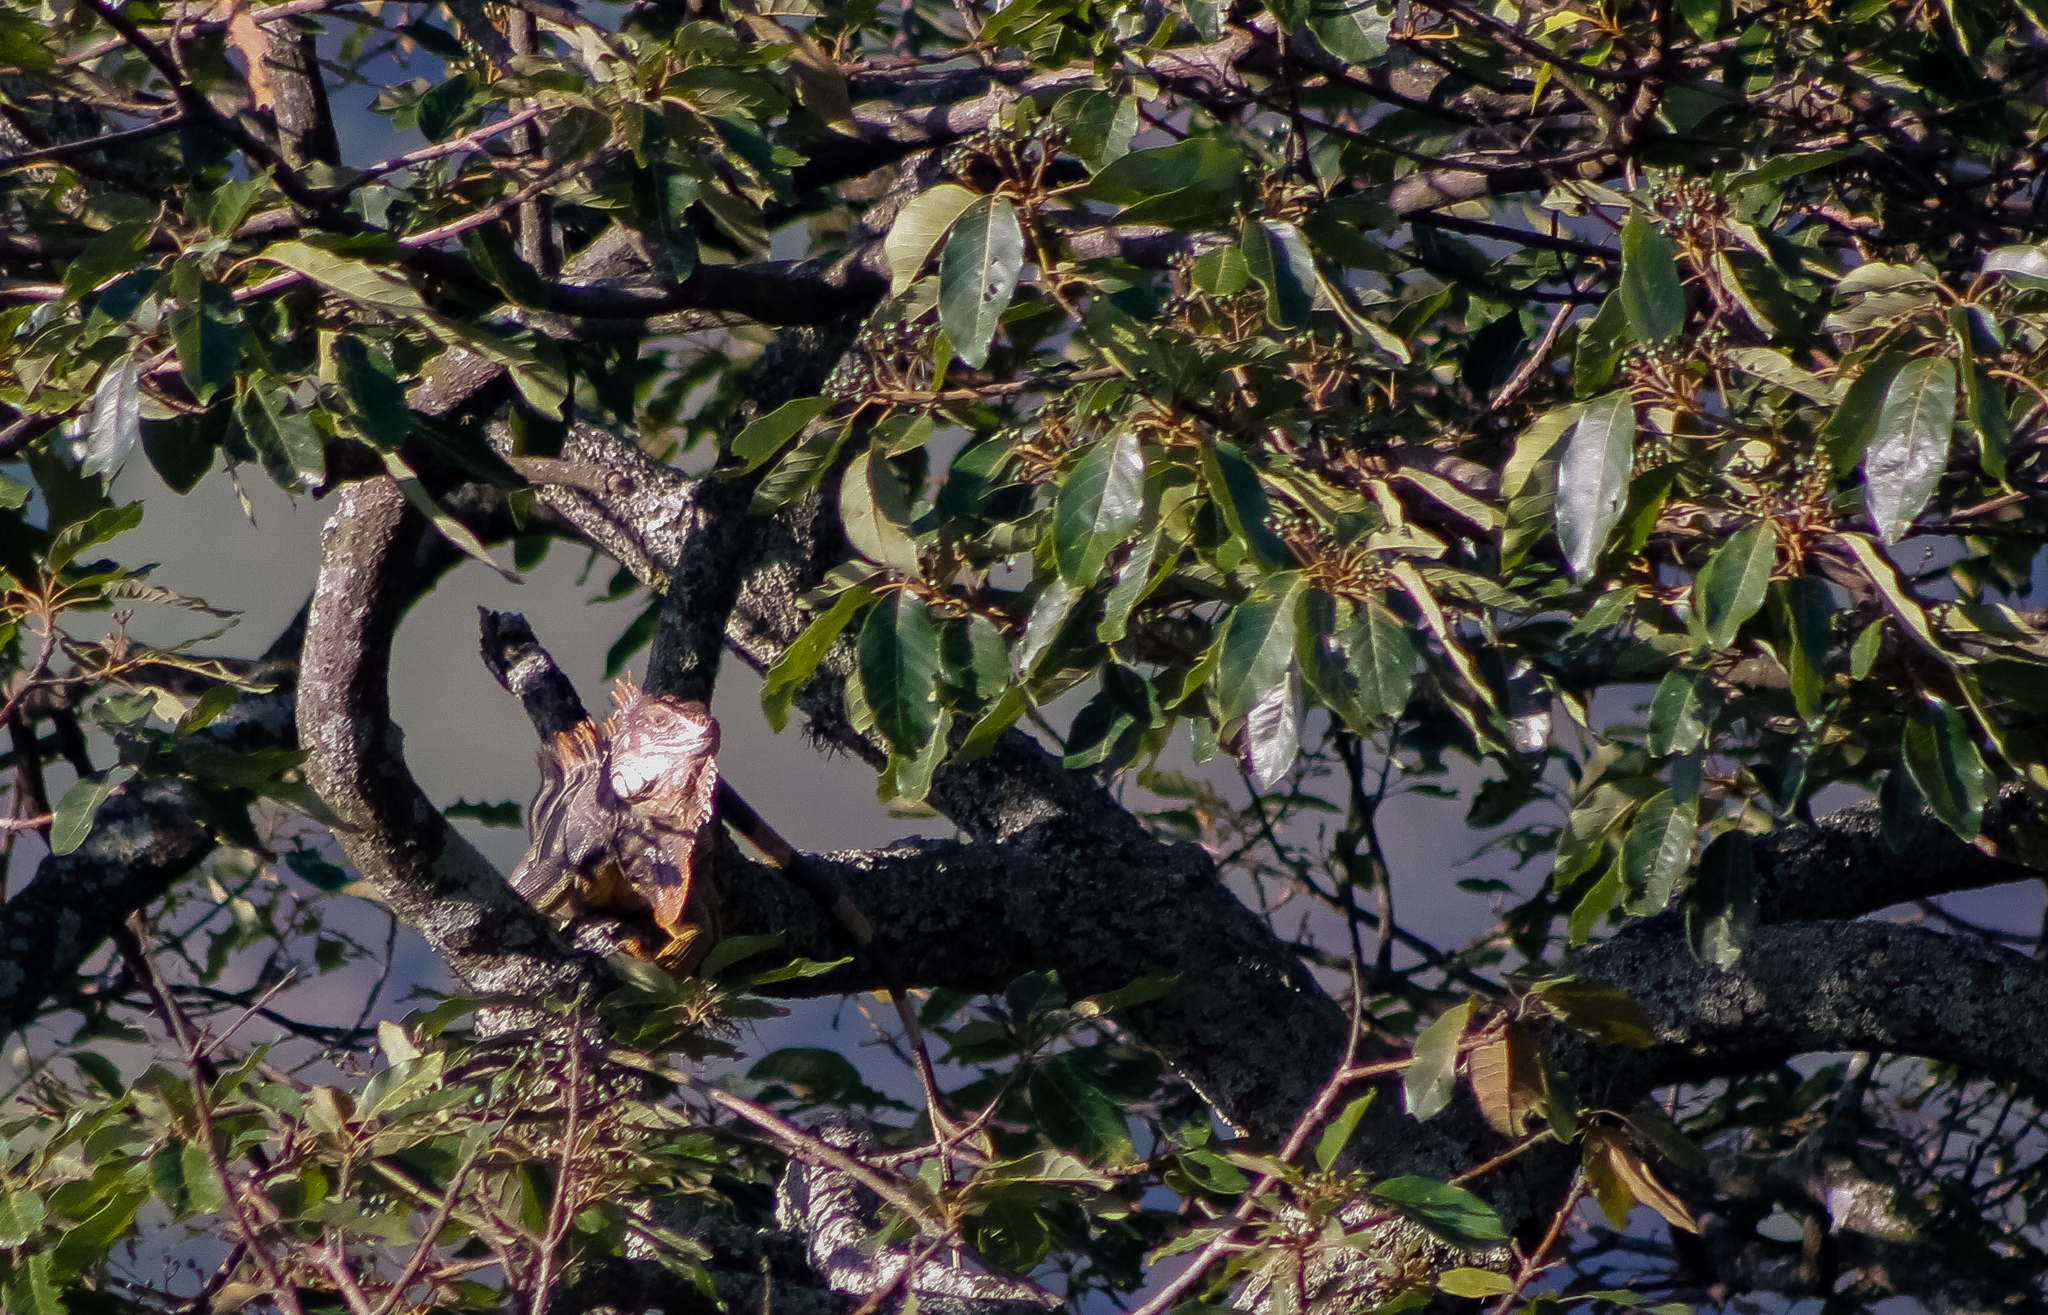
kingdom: Animalia
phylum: Chordata
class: Squamata
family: Iguanidae
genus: Iguana
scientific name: Iguana iguana
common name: Green iguana
